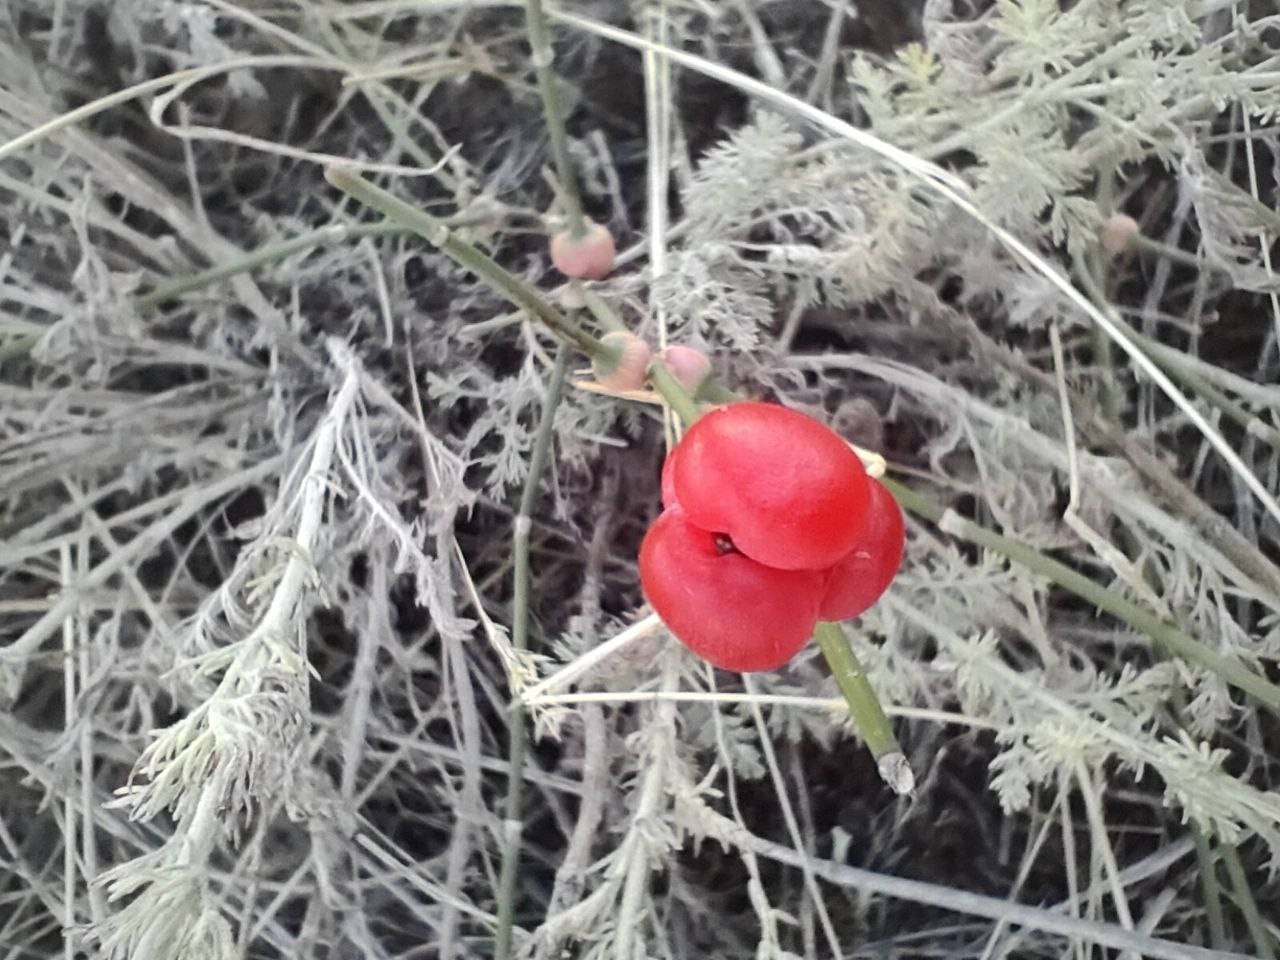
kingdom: Plantae
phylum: Tracheophyta
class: Gnetopsida
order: Ephedrales
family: Ephedraceae
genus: Ephedra
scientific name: Ephedra distachya
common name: Sea grape
